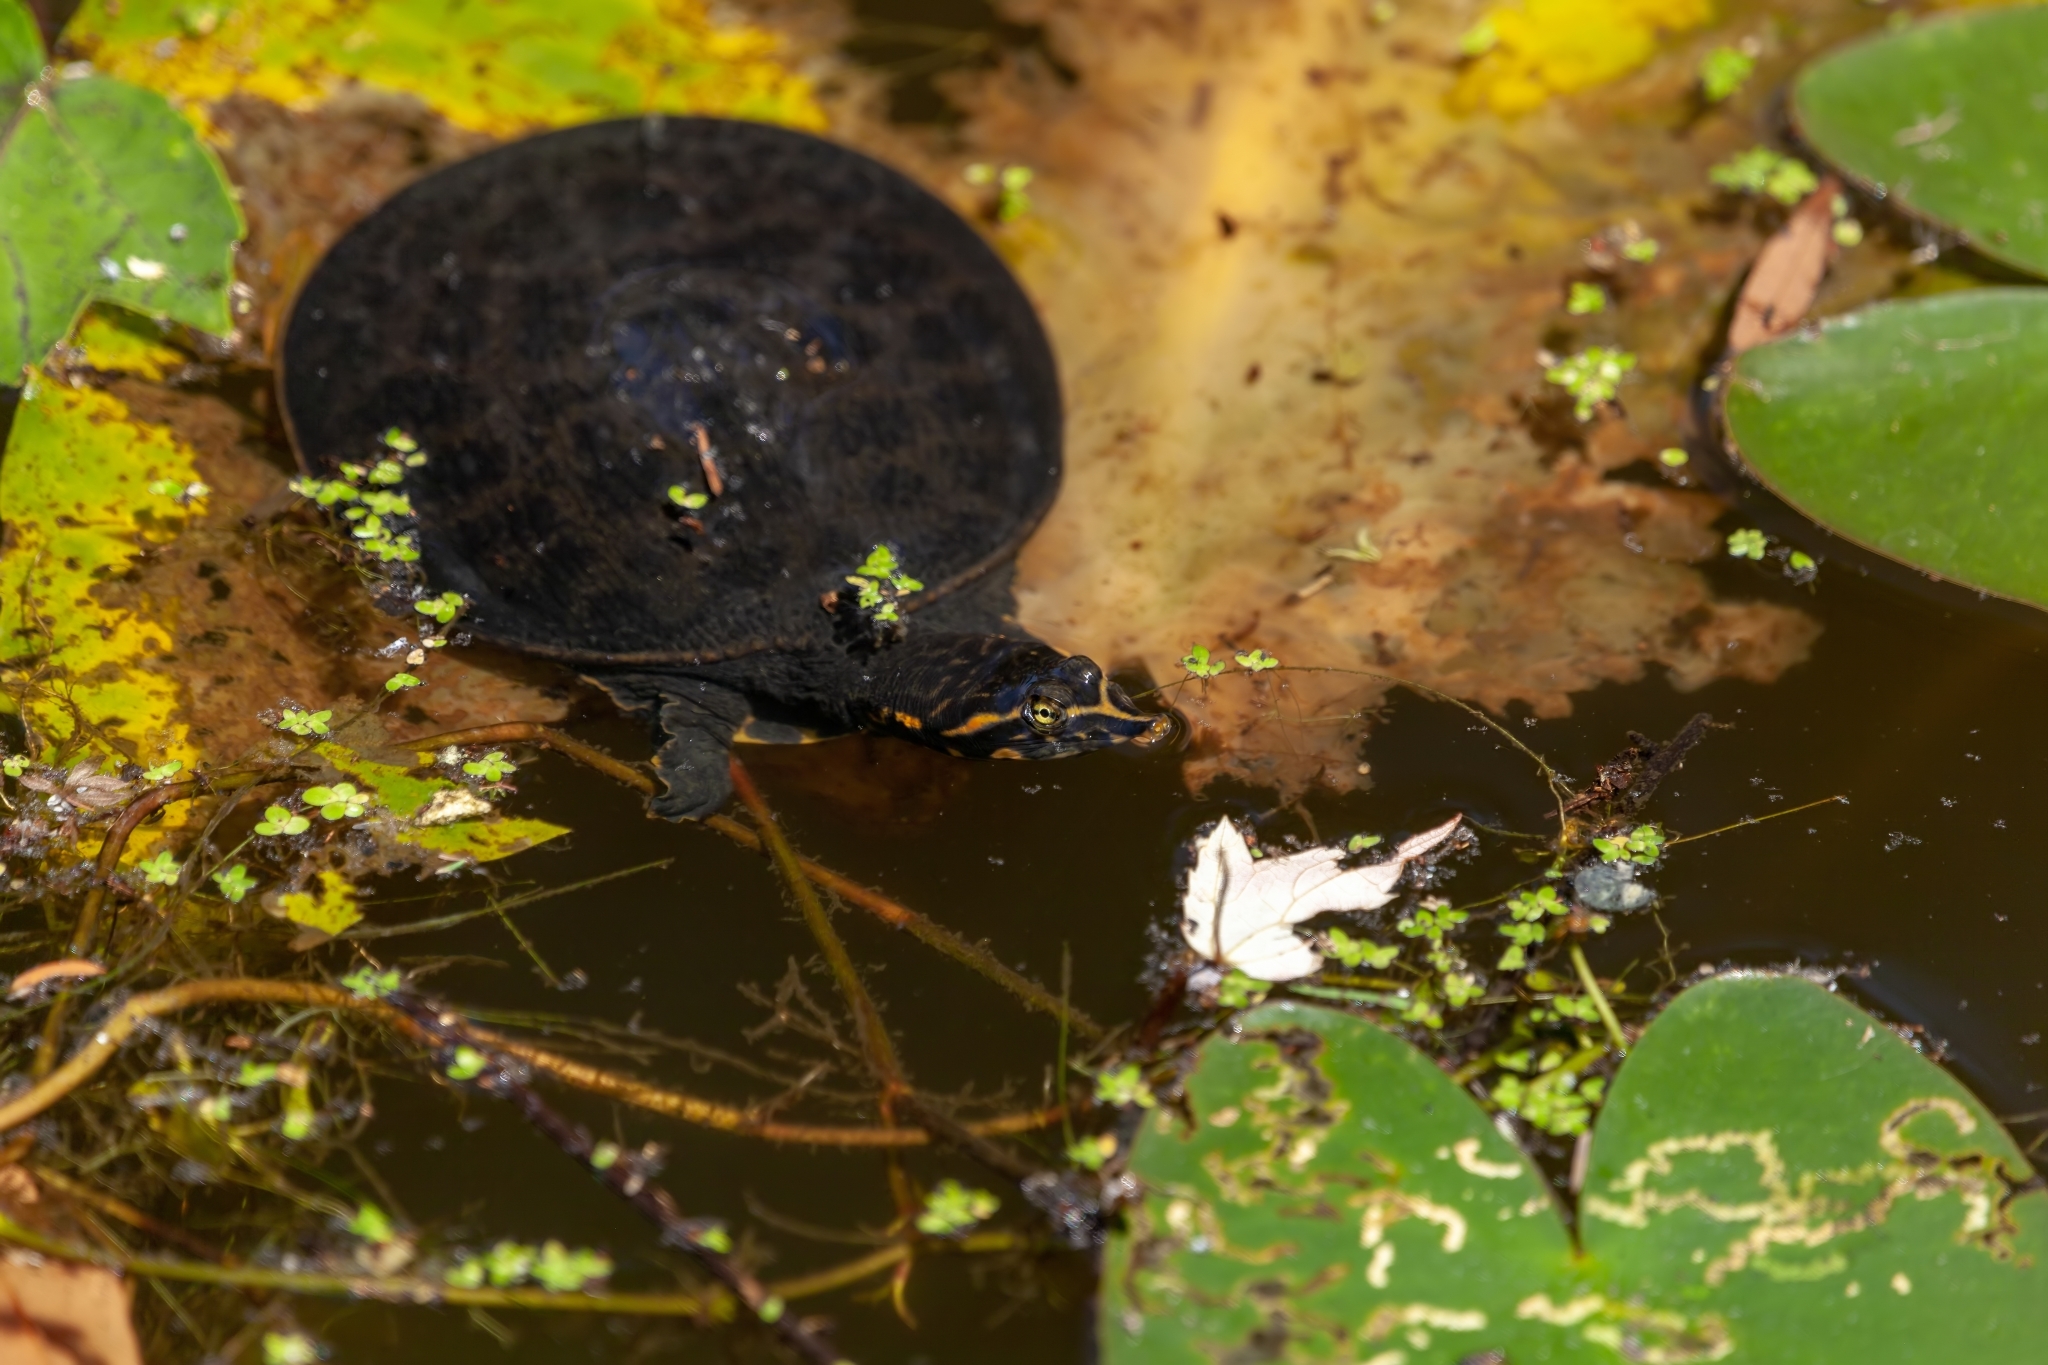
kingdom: Animalia
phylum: Chordata
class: Testudines
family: Trionychidae
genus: Apalone
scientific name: Apalone ferox
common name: Florida softshell turtle
